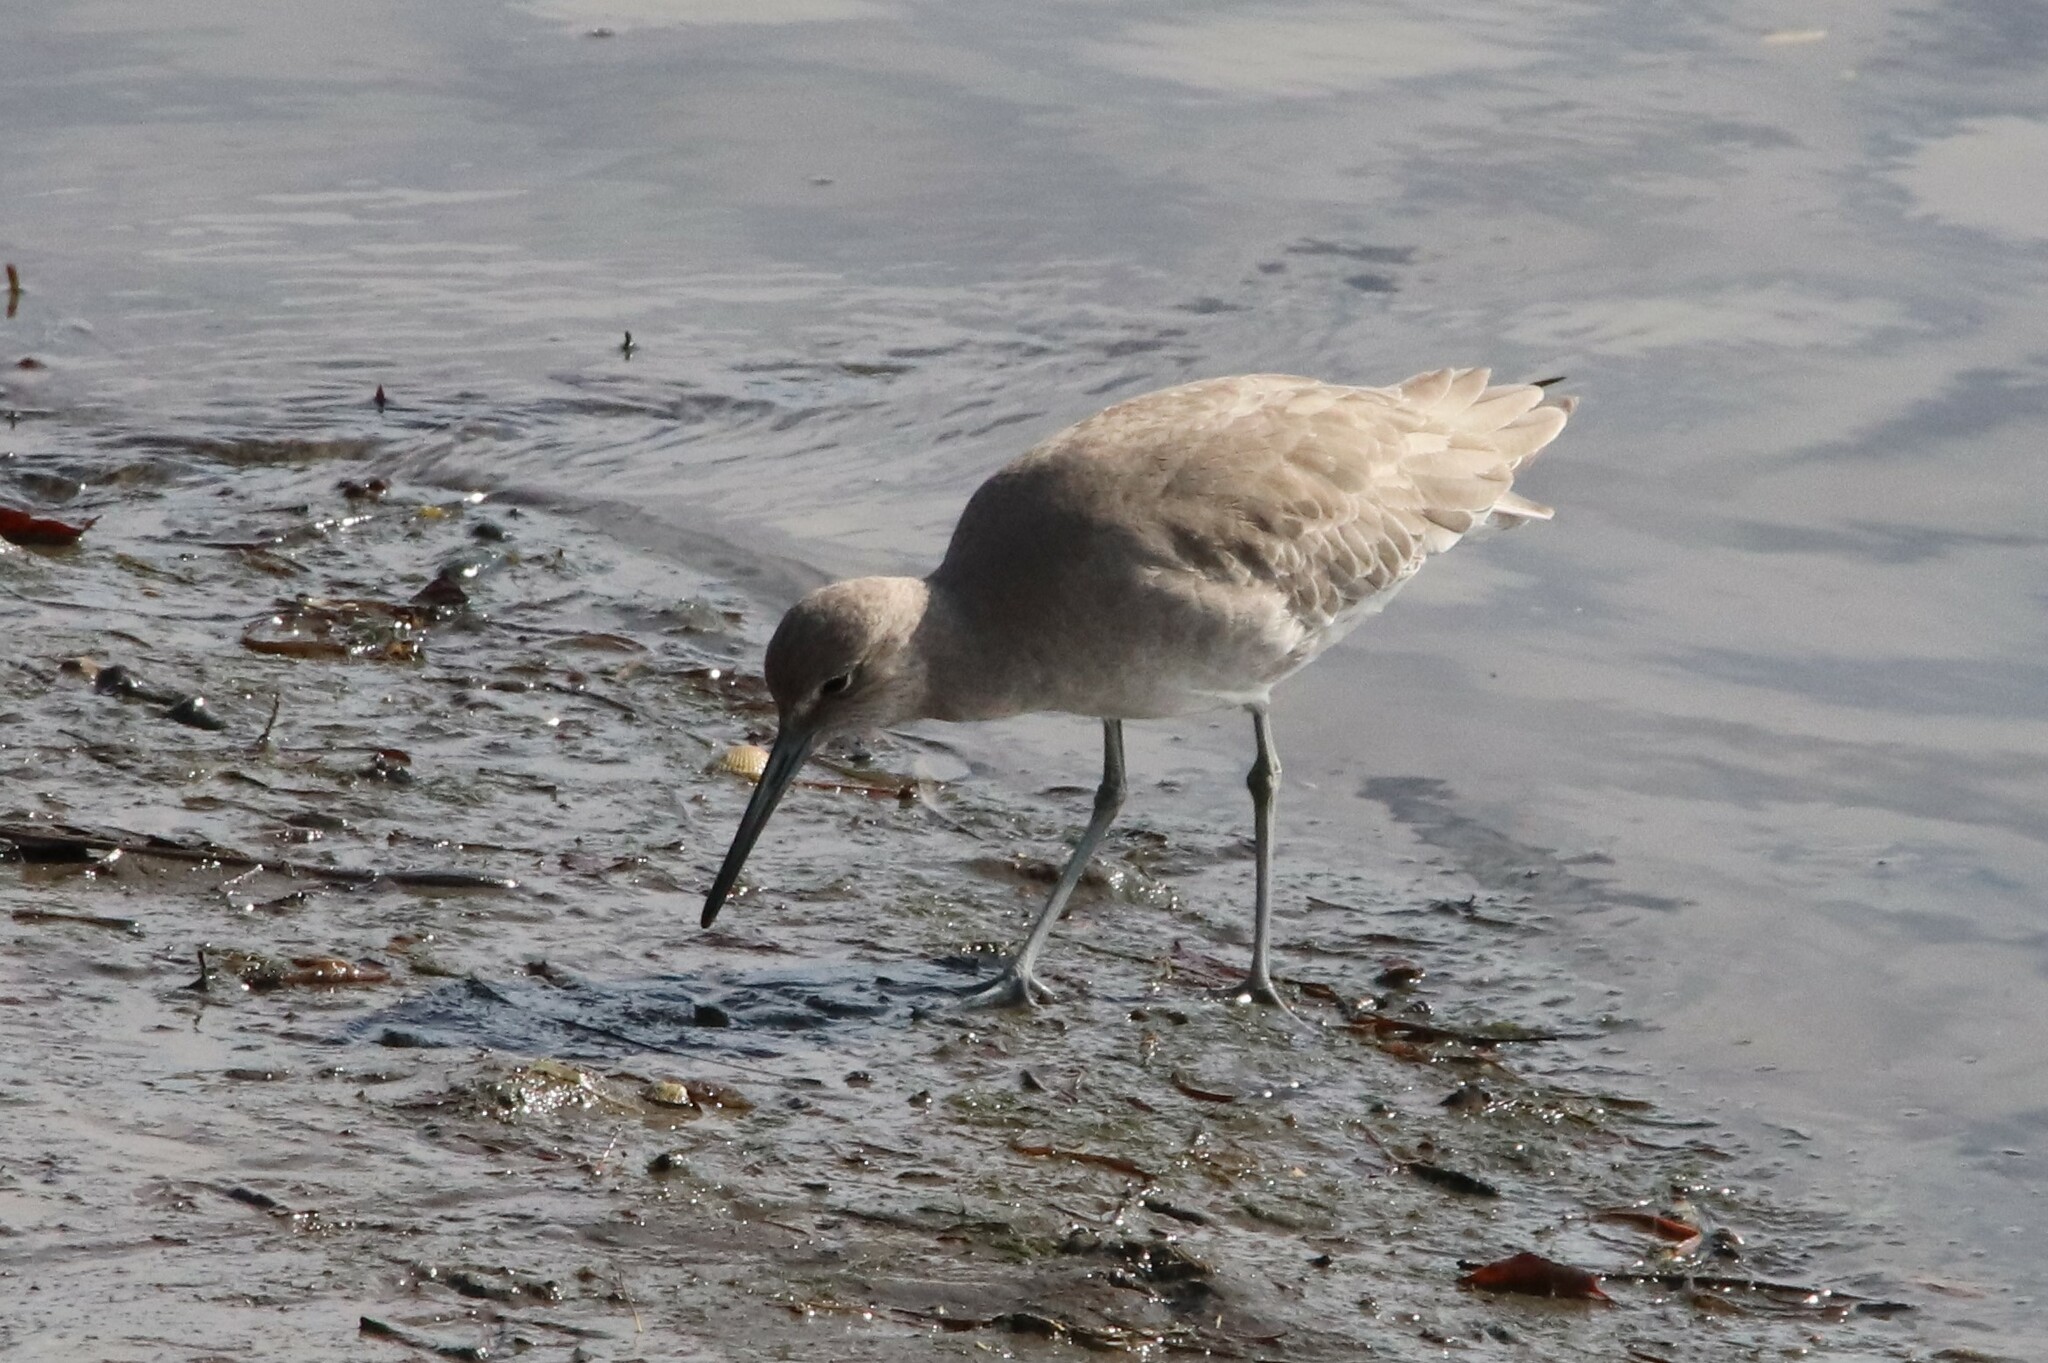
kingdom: Animalia
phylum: Chordata
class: Aves
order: Charadriiformes
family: Scolopacidae
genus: Tringa
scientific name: Tringa semipalmata
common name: Willet
